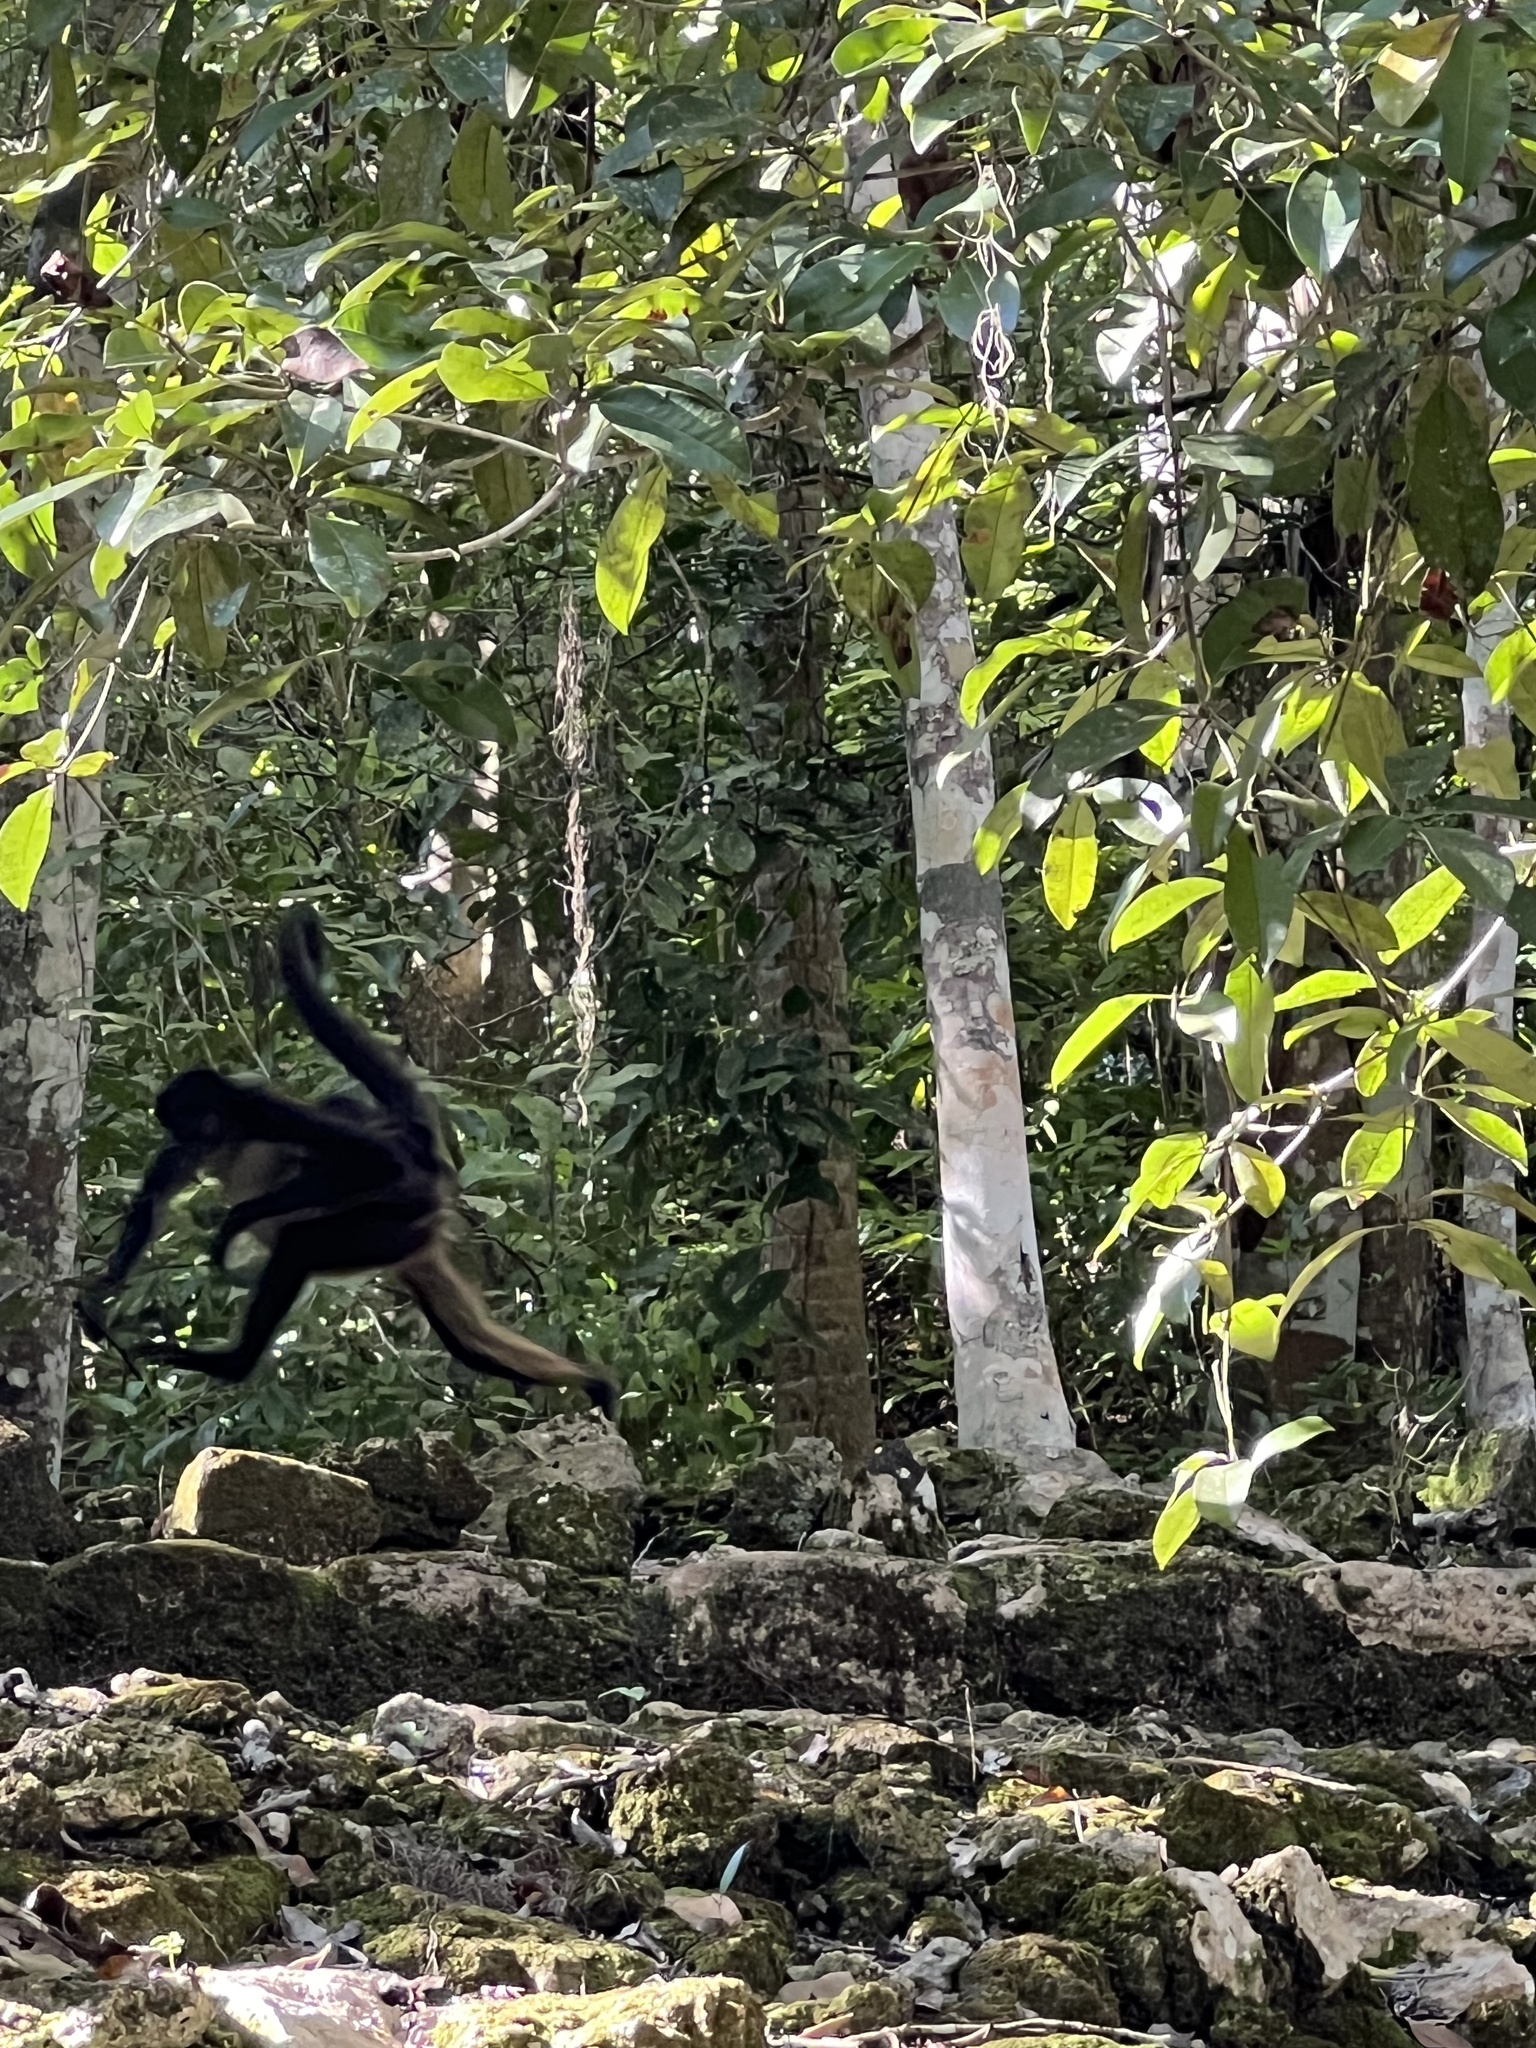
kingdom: Animalia
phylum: Chordata
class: Mammalia
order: Primates
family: Atelidae
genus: Ateles
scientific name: Ateles geoffroyi
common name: Black-handed spider monkey
